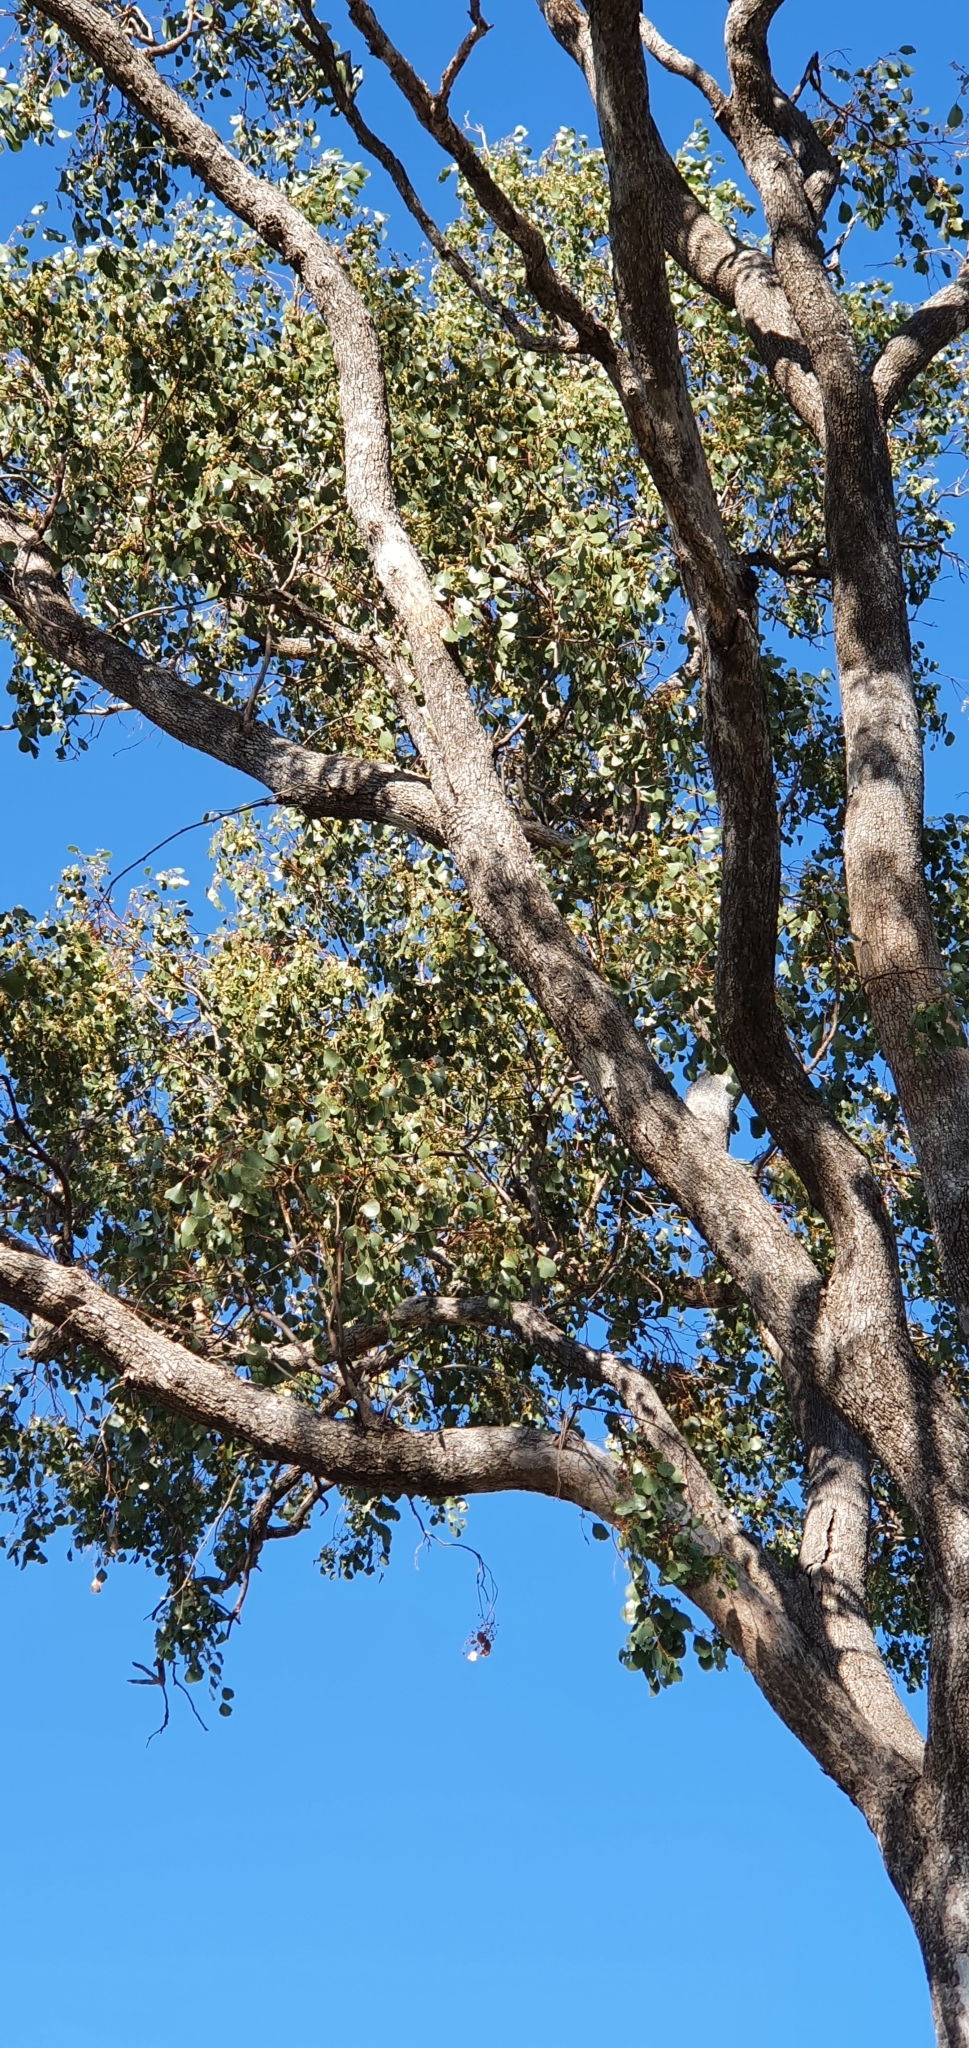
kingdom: Plantae
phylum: Tracheophyta
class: Magnoliopsida
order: Myrtales
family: Myrtaceae
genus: Eucalyptus
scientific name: Eucalyptus populnea
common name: Bimble box
